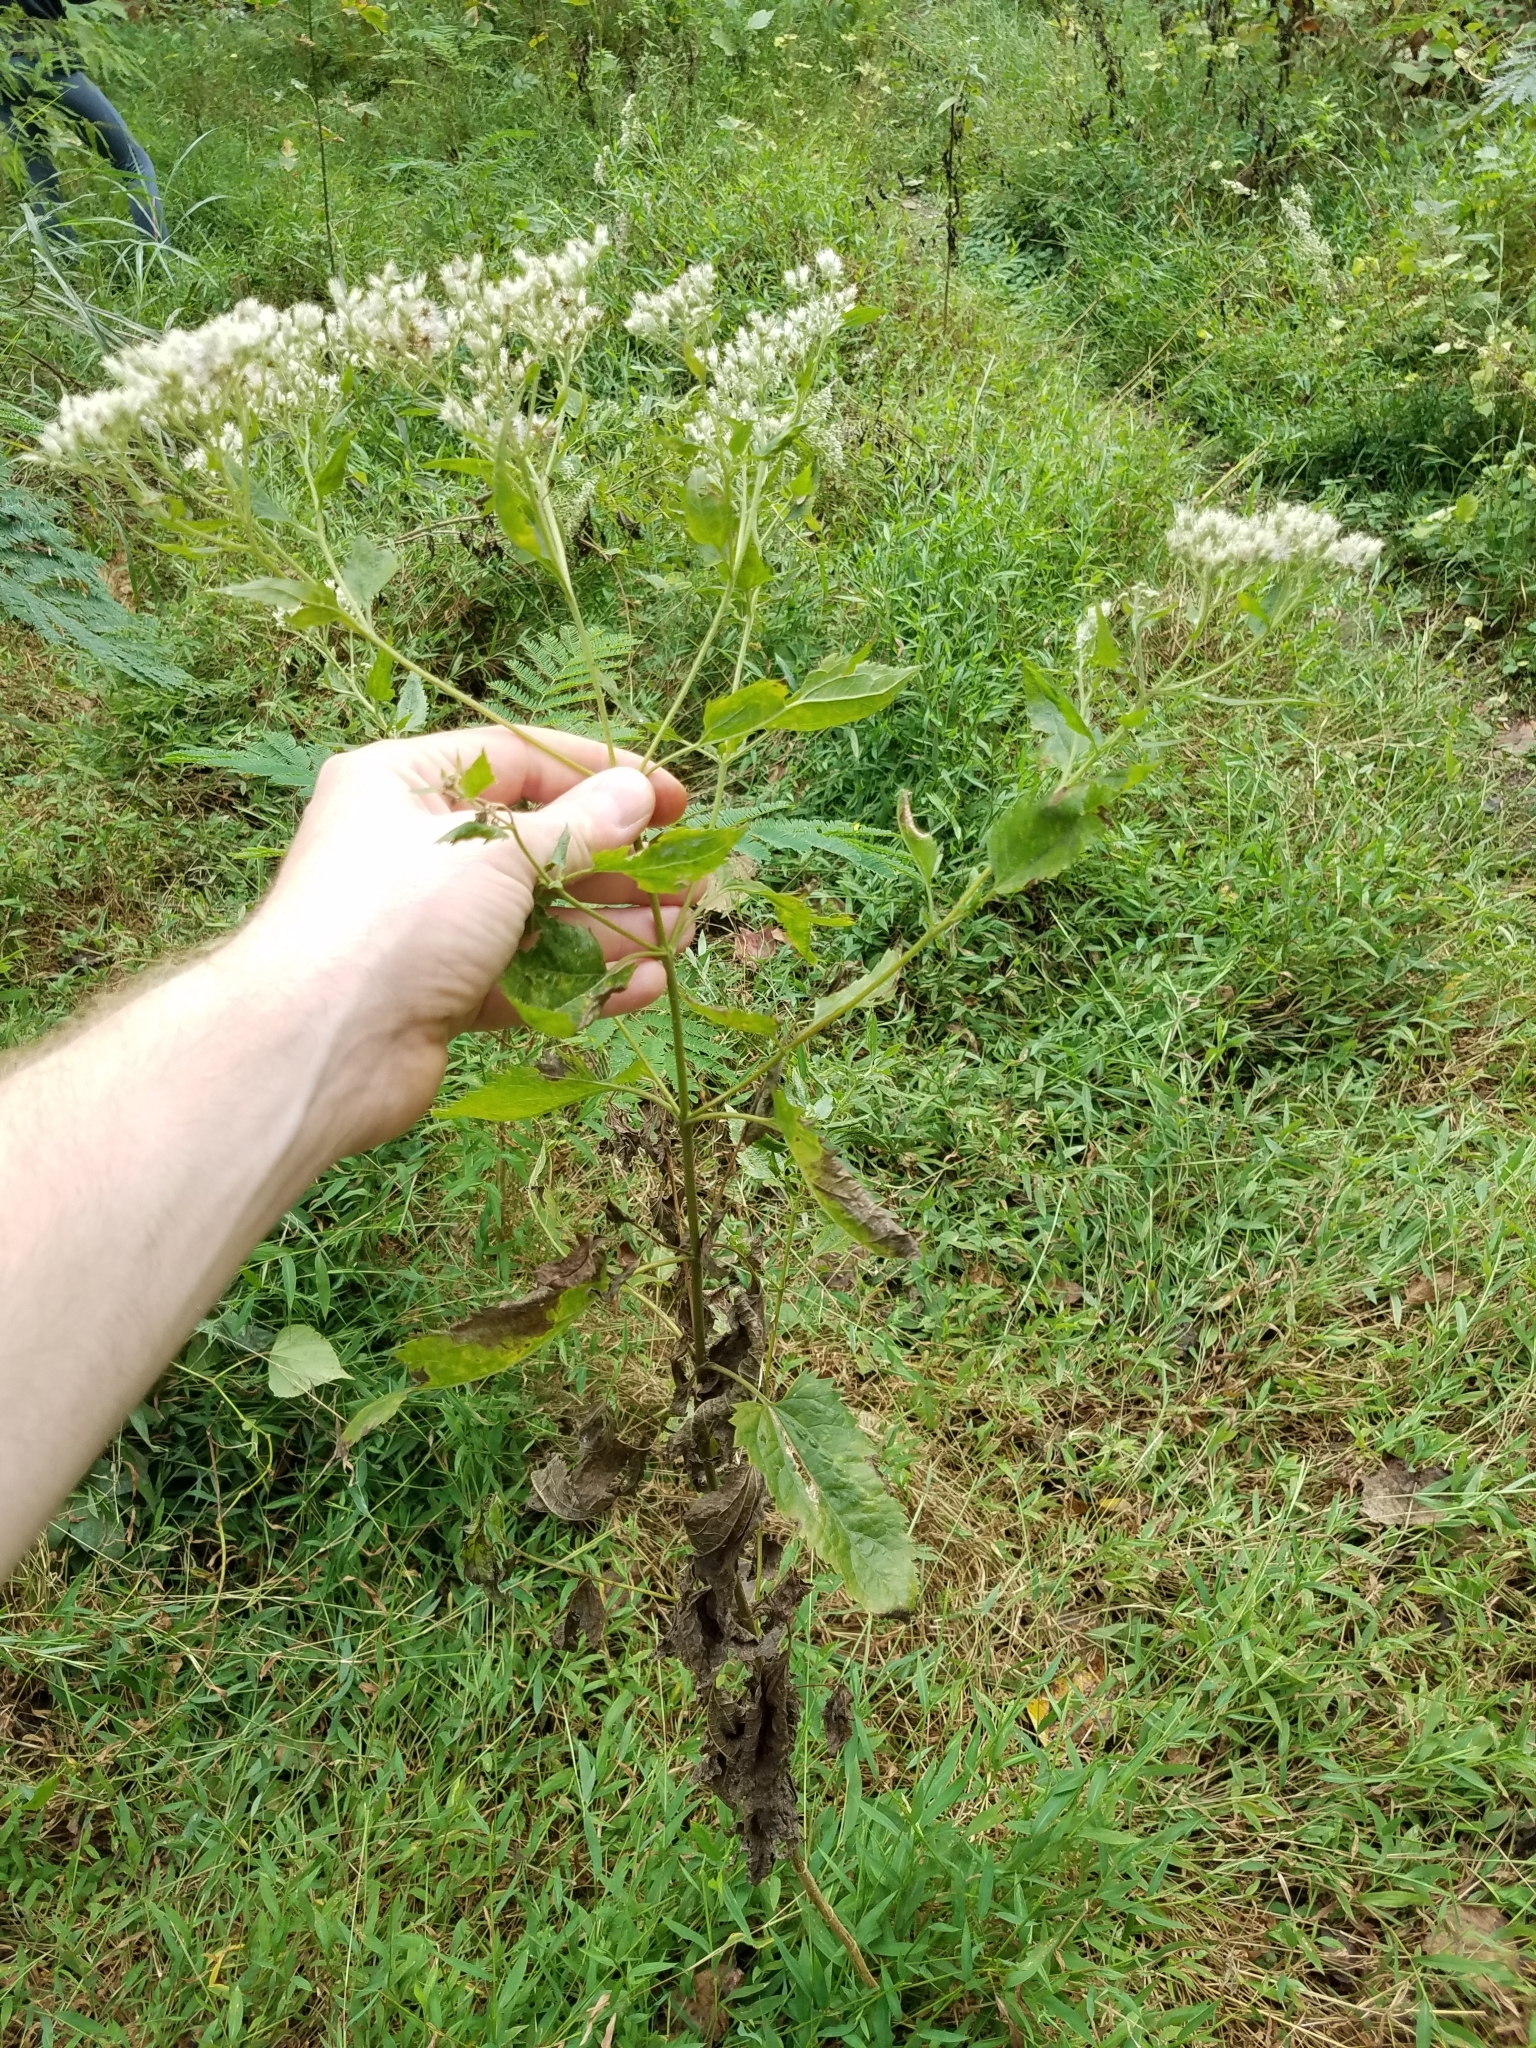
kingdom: Plantae
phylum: Tracheophyta
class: Magnoliopsida
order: Asterales
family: Asteraceae
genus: Eupatorium
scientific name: Eupatorium serotinum
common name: Late boneset
